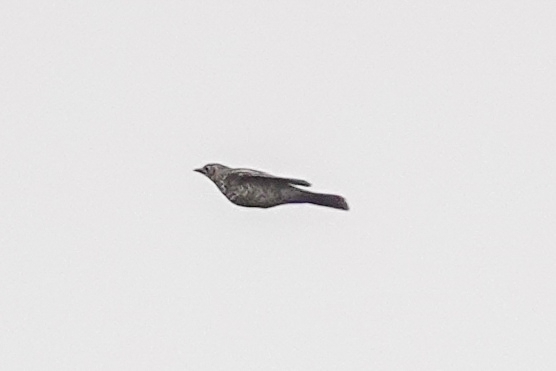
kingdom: Animalia
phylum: Chordata
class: Aves
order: Passeriformes
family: Turdidae
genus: Turdus
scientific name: Turdus viscivorus
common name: Mistle thrush
